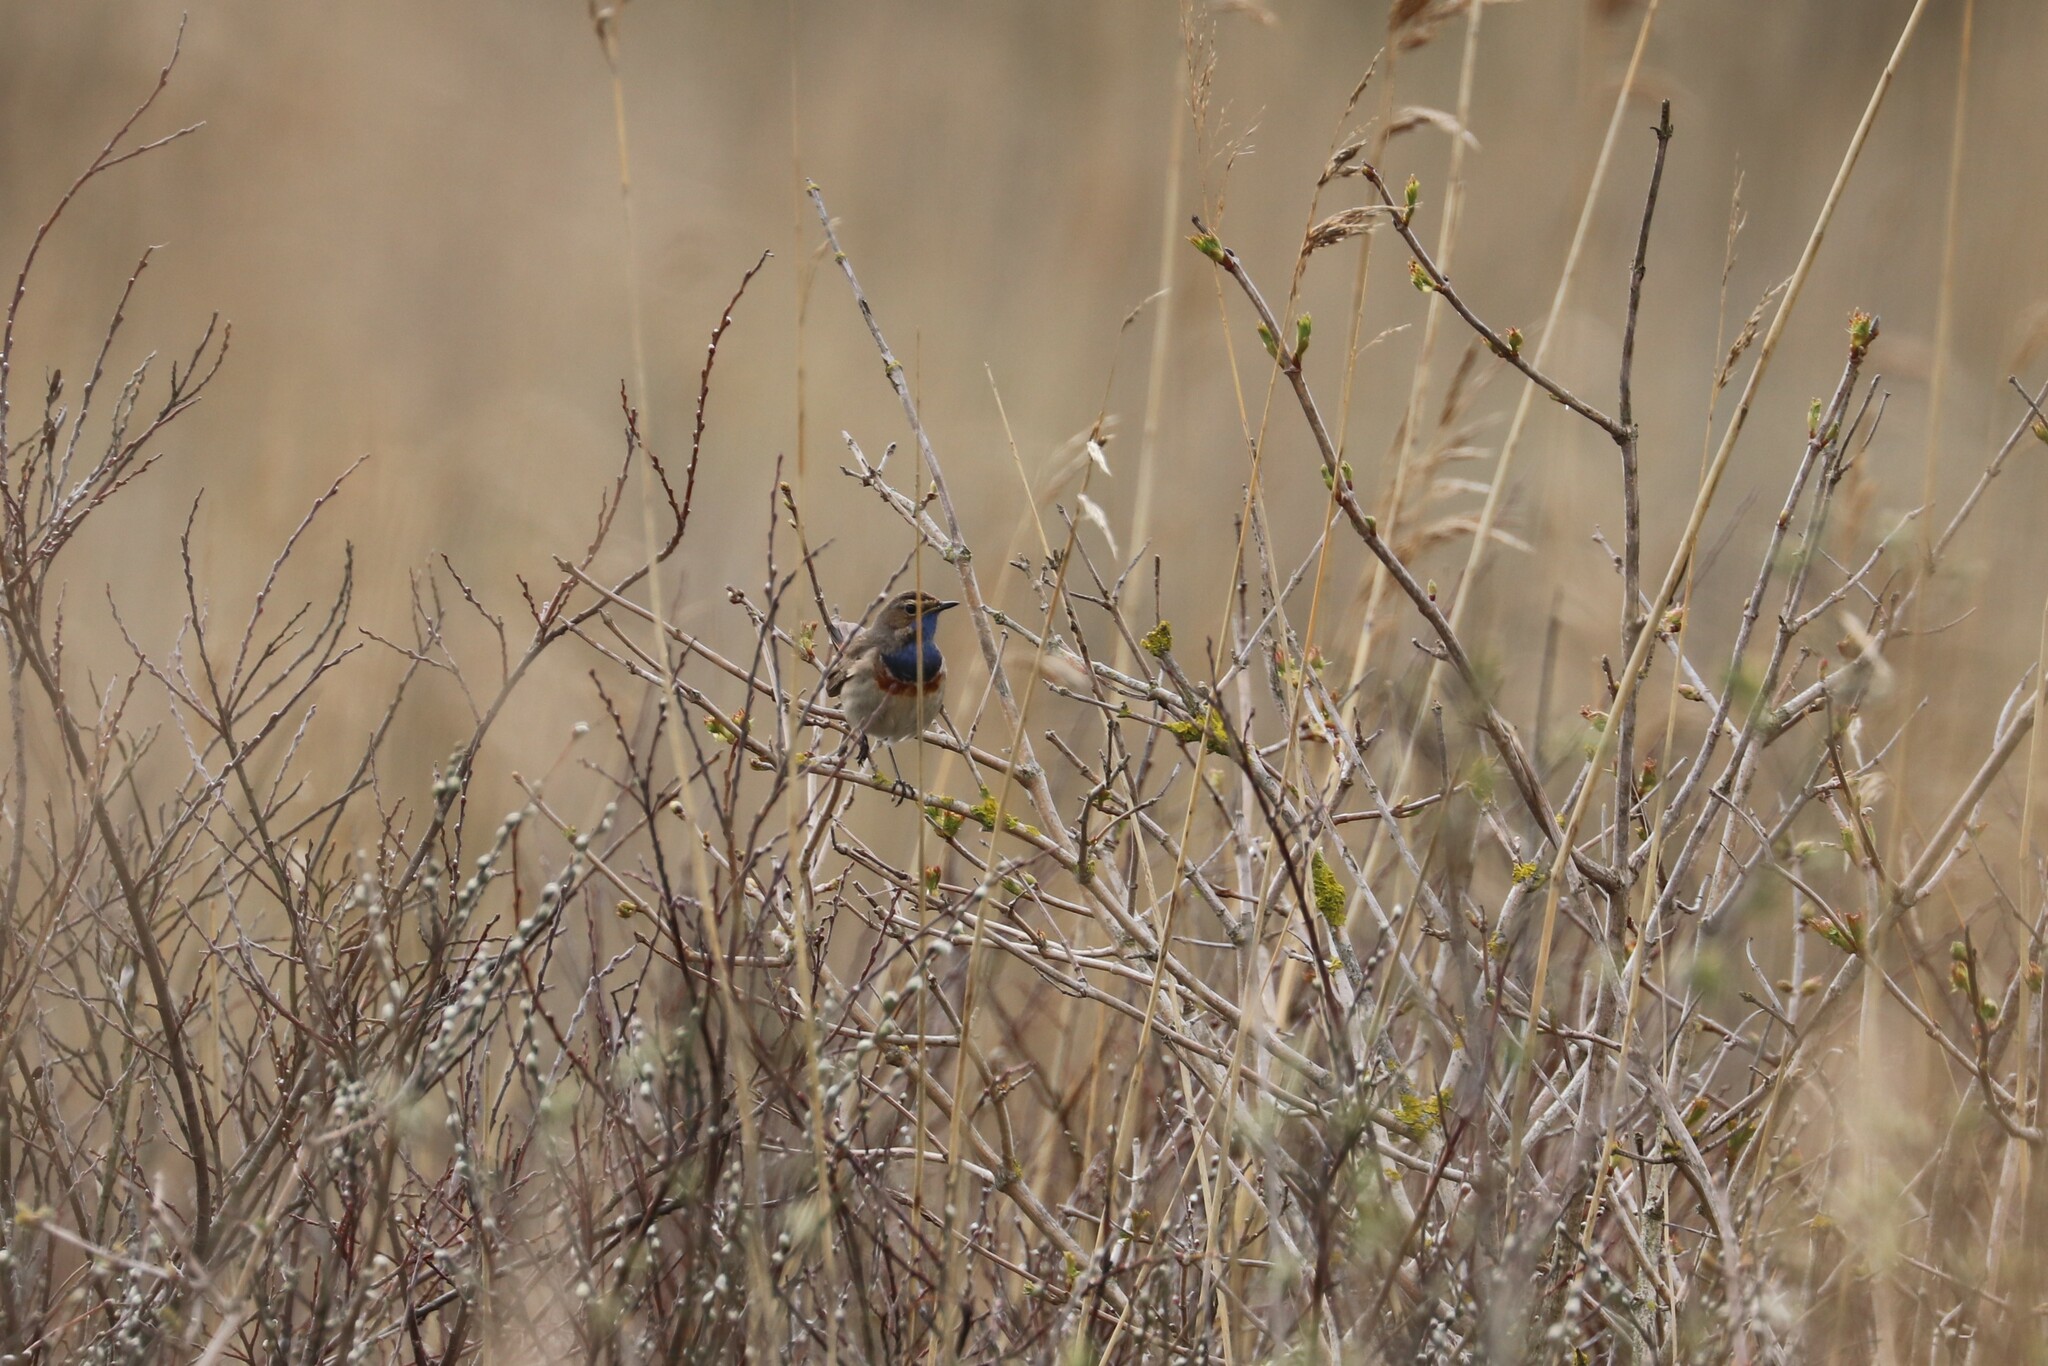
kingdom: Animalia
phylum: Chordata
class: Aves
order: Passeriformes
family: Muscicapidae
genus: Luscinia
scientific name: Luscinia svecica
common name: Bluethroat
